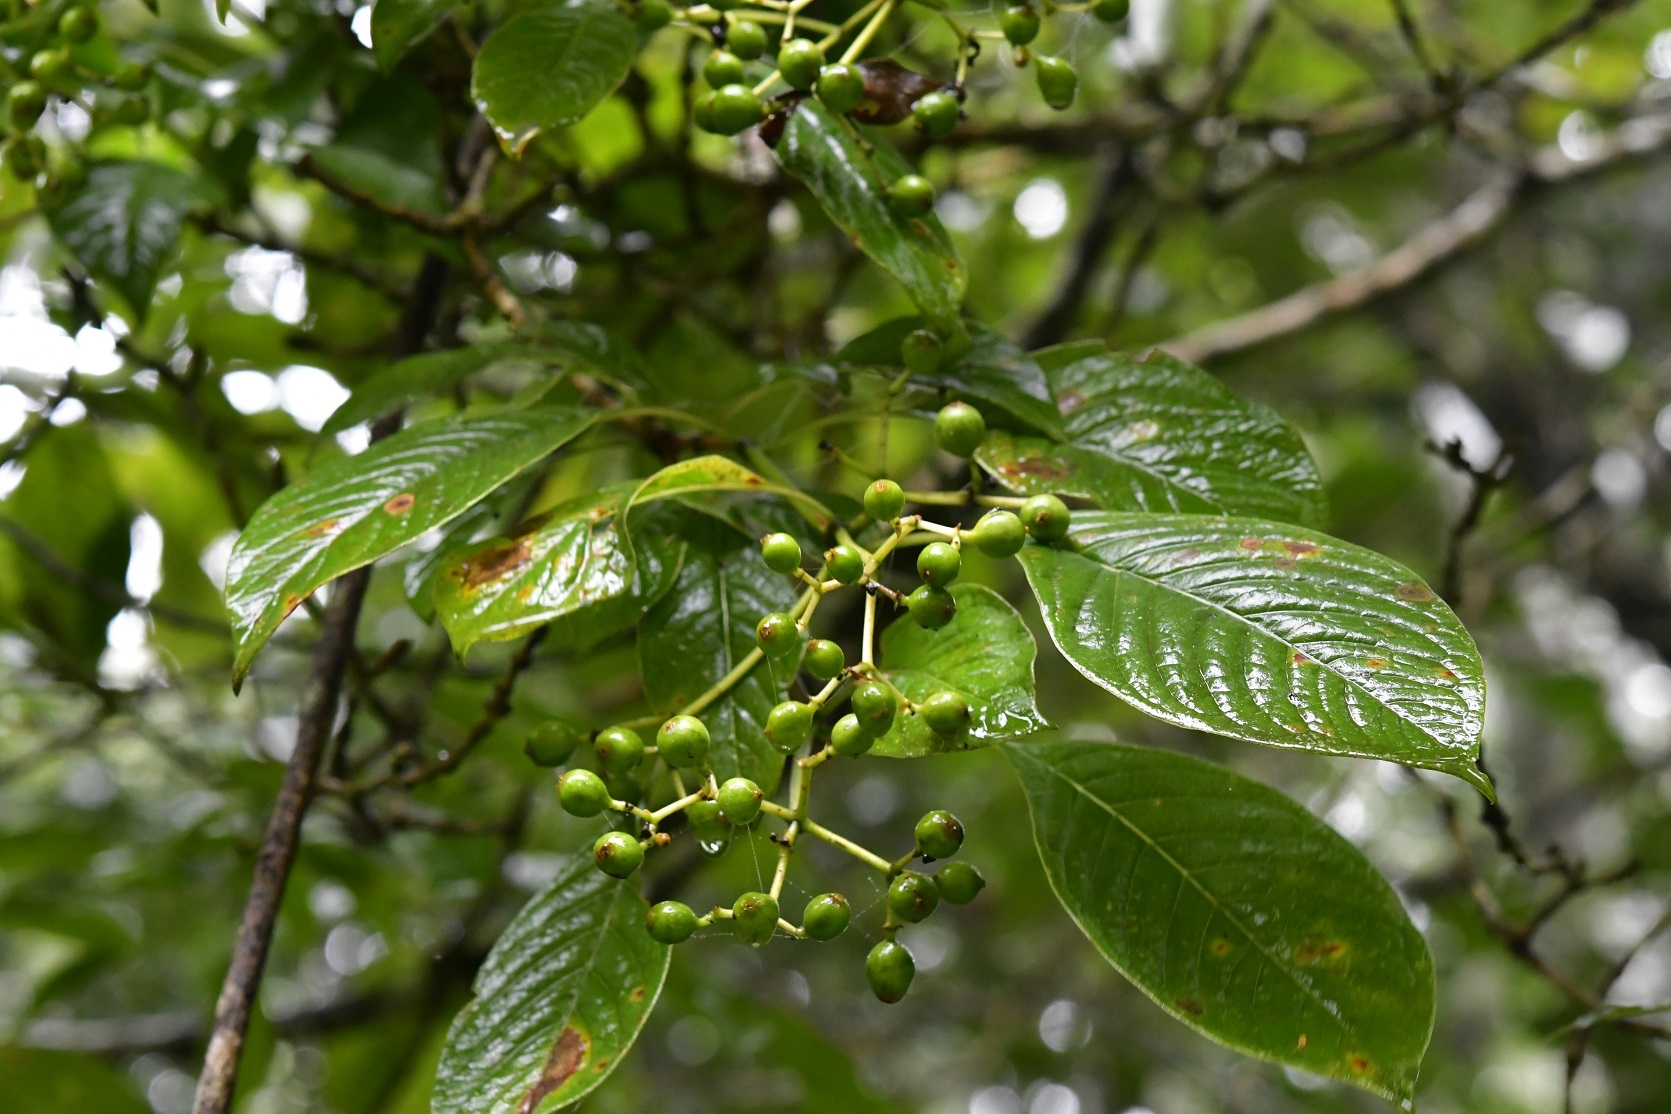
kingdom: Plantae
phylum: Tracheophyta
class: Magnoliopsida
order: Gentianales
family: Rubiaceae
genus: Coussarea
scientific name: Coussarea chiapensis
